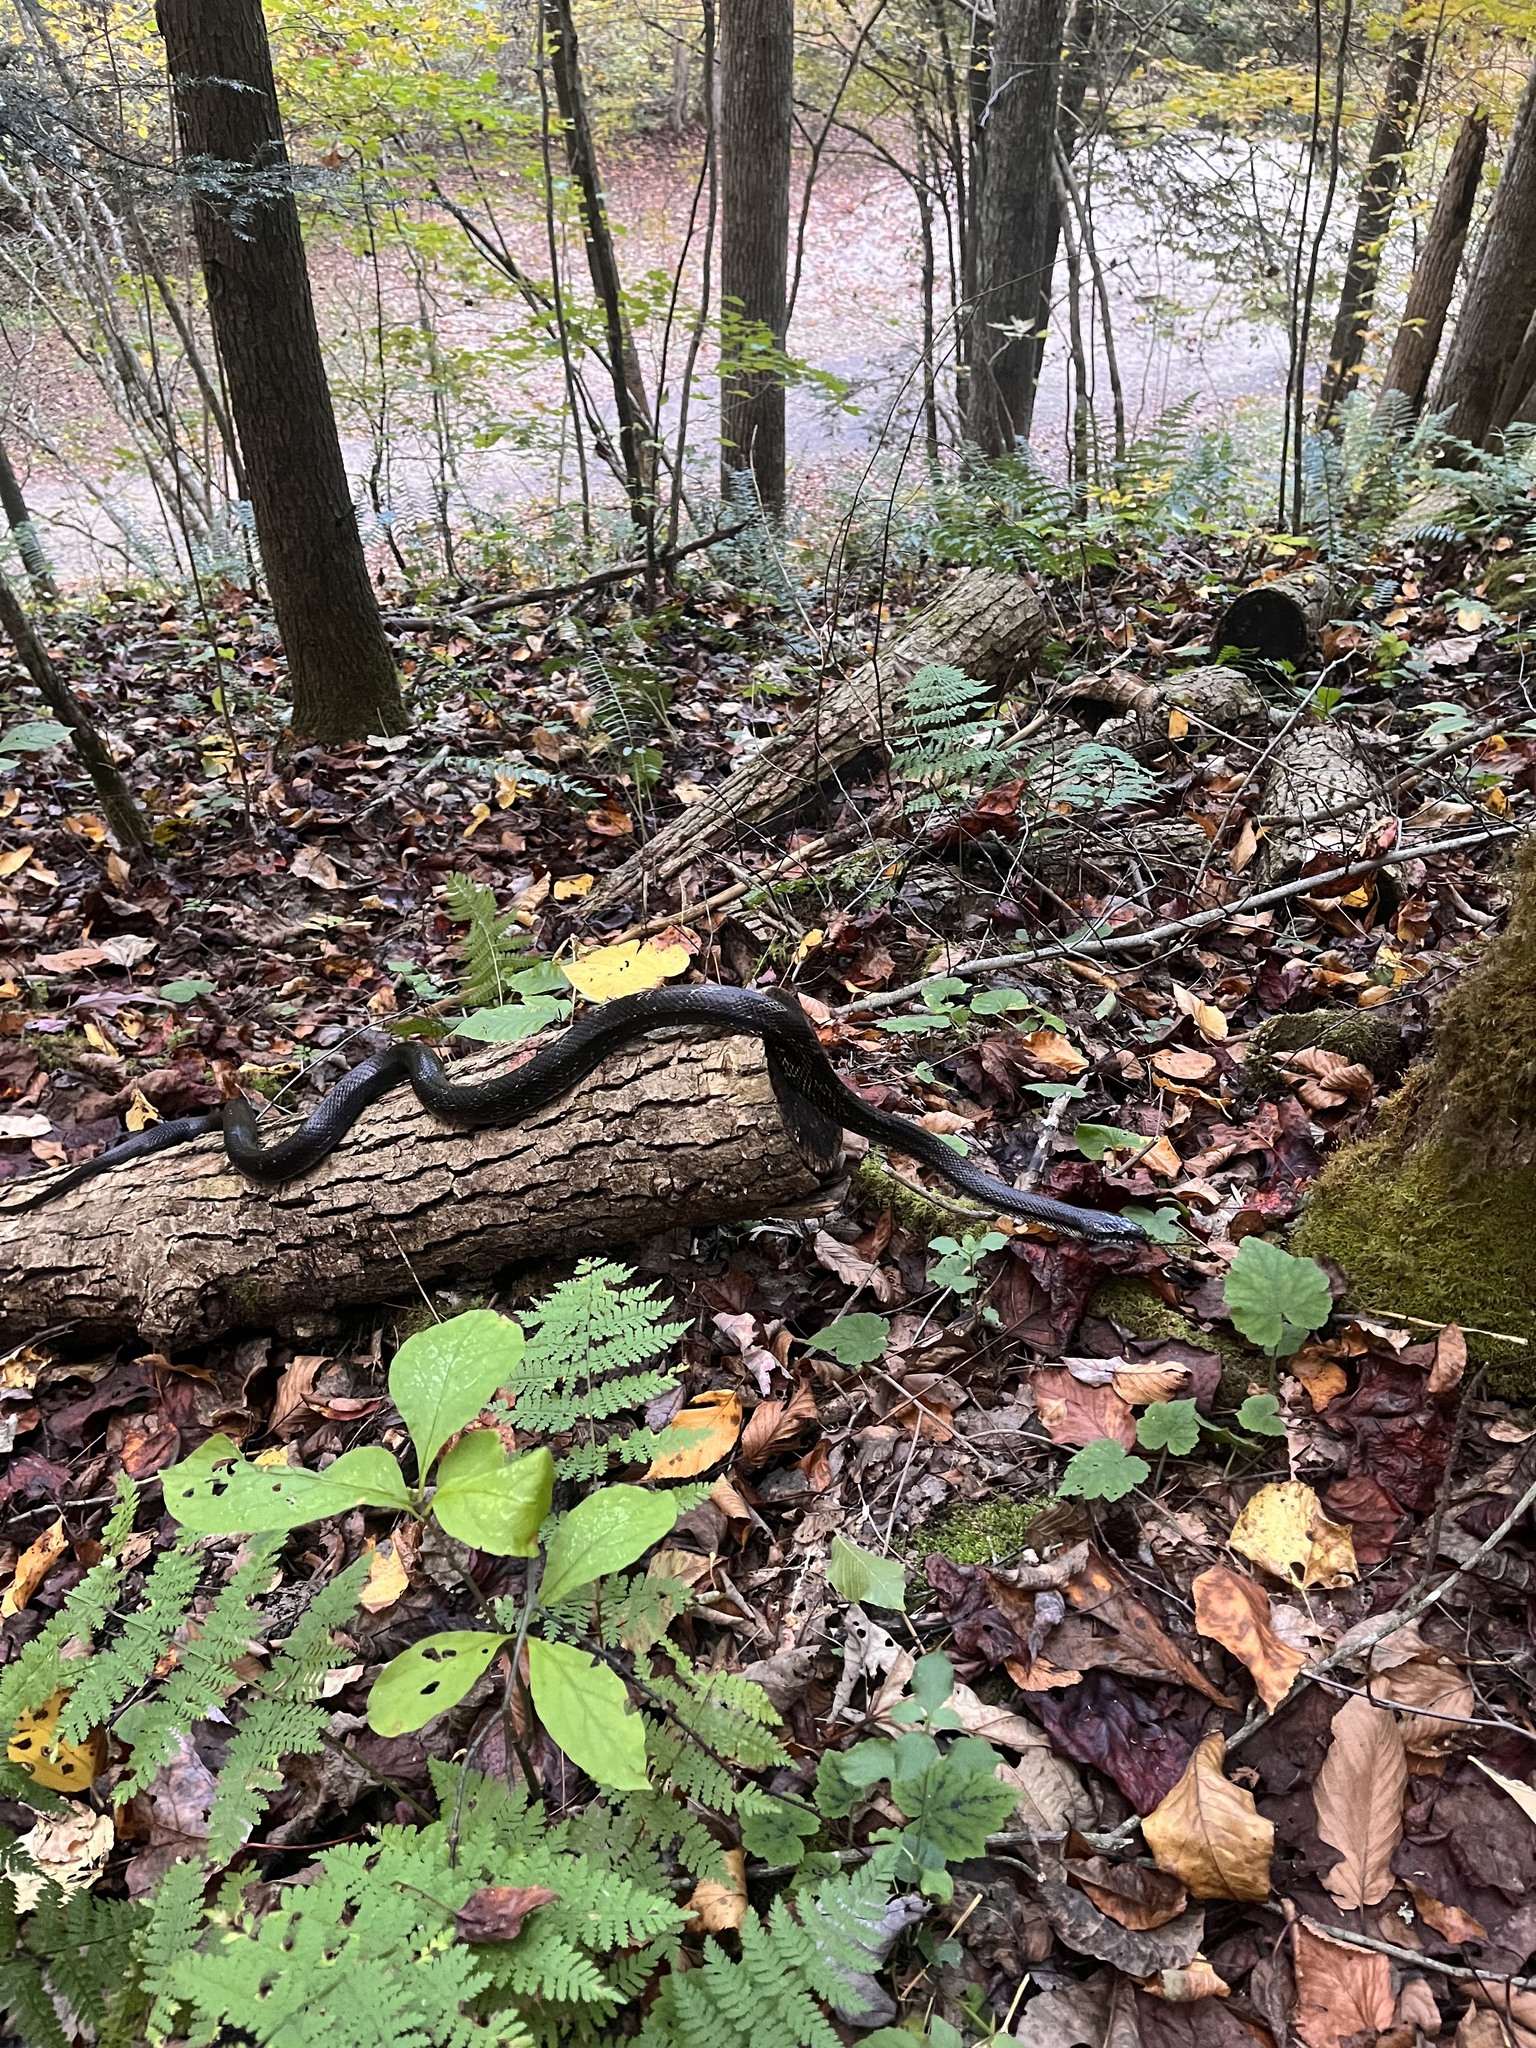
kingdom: Animalia
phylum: Chordata
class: Squamata
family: Colubridae
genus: Pantherophis
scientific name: Pantherophis spiloides
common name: Gray rat snake
